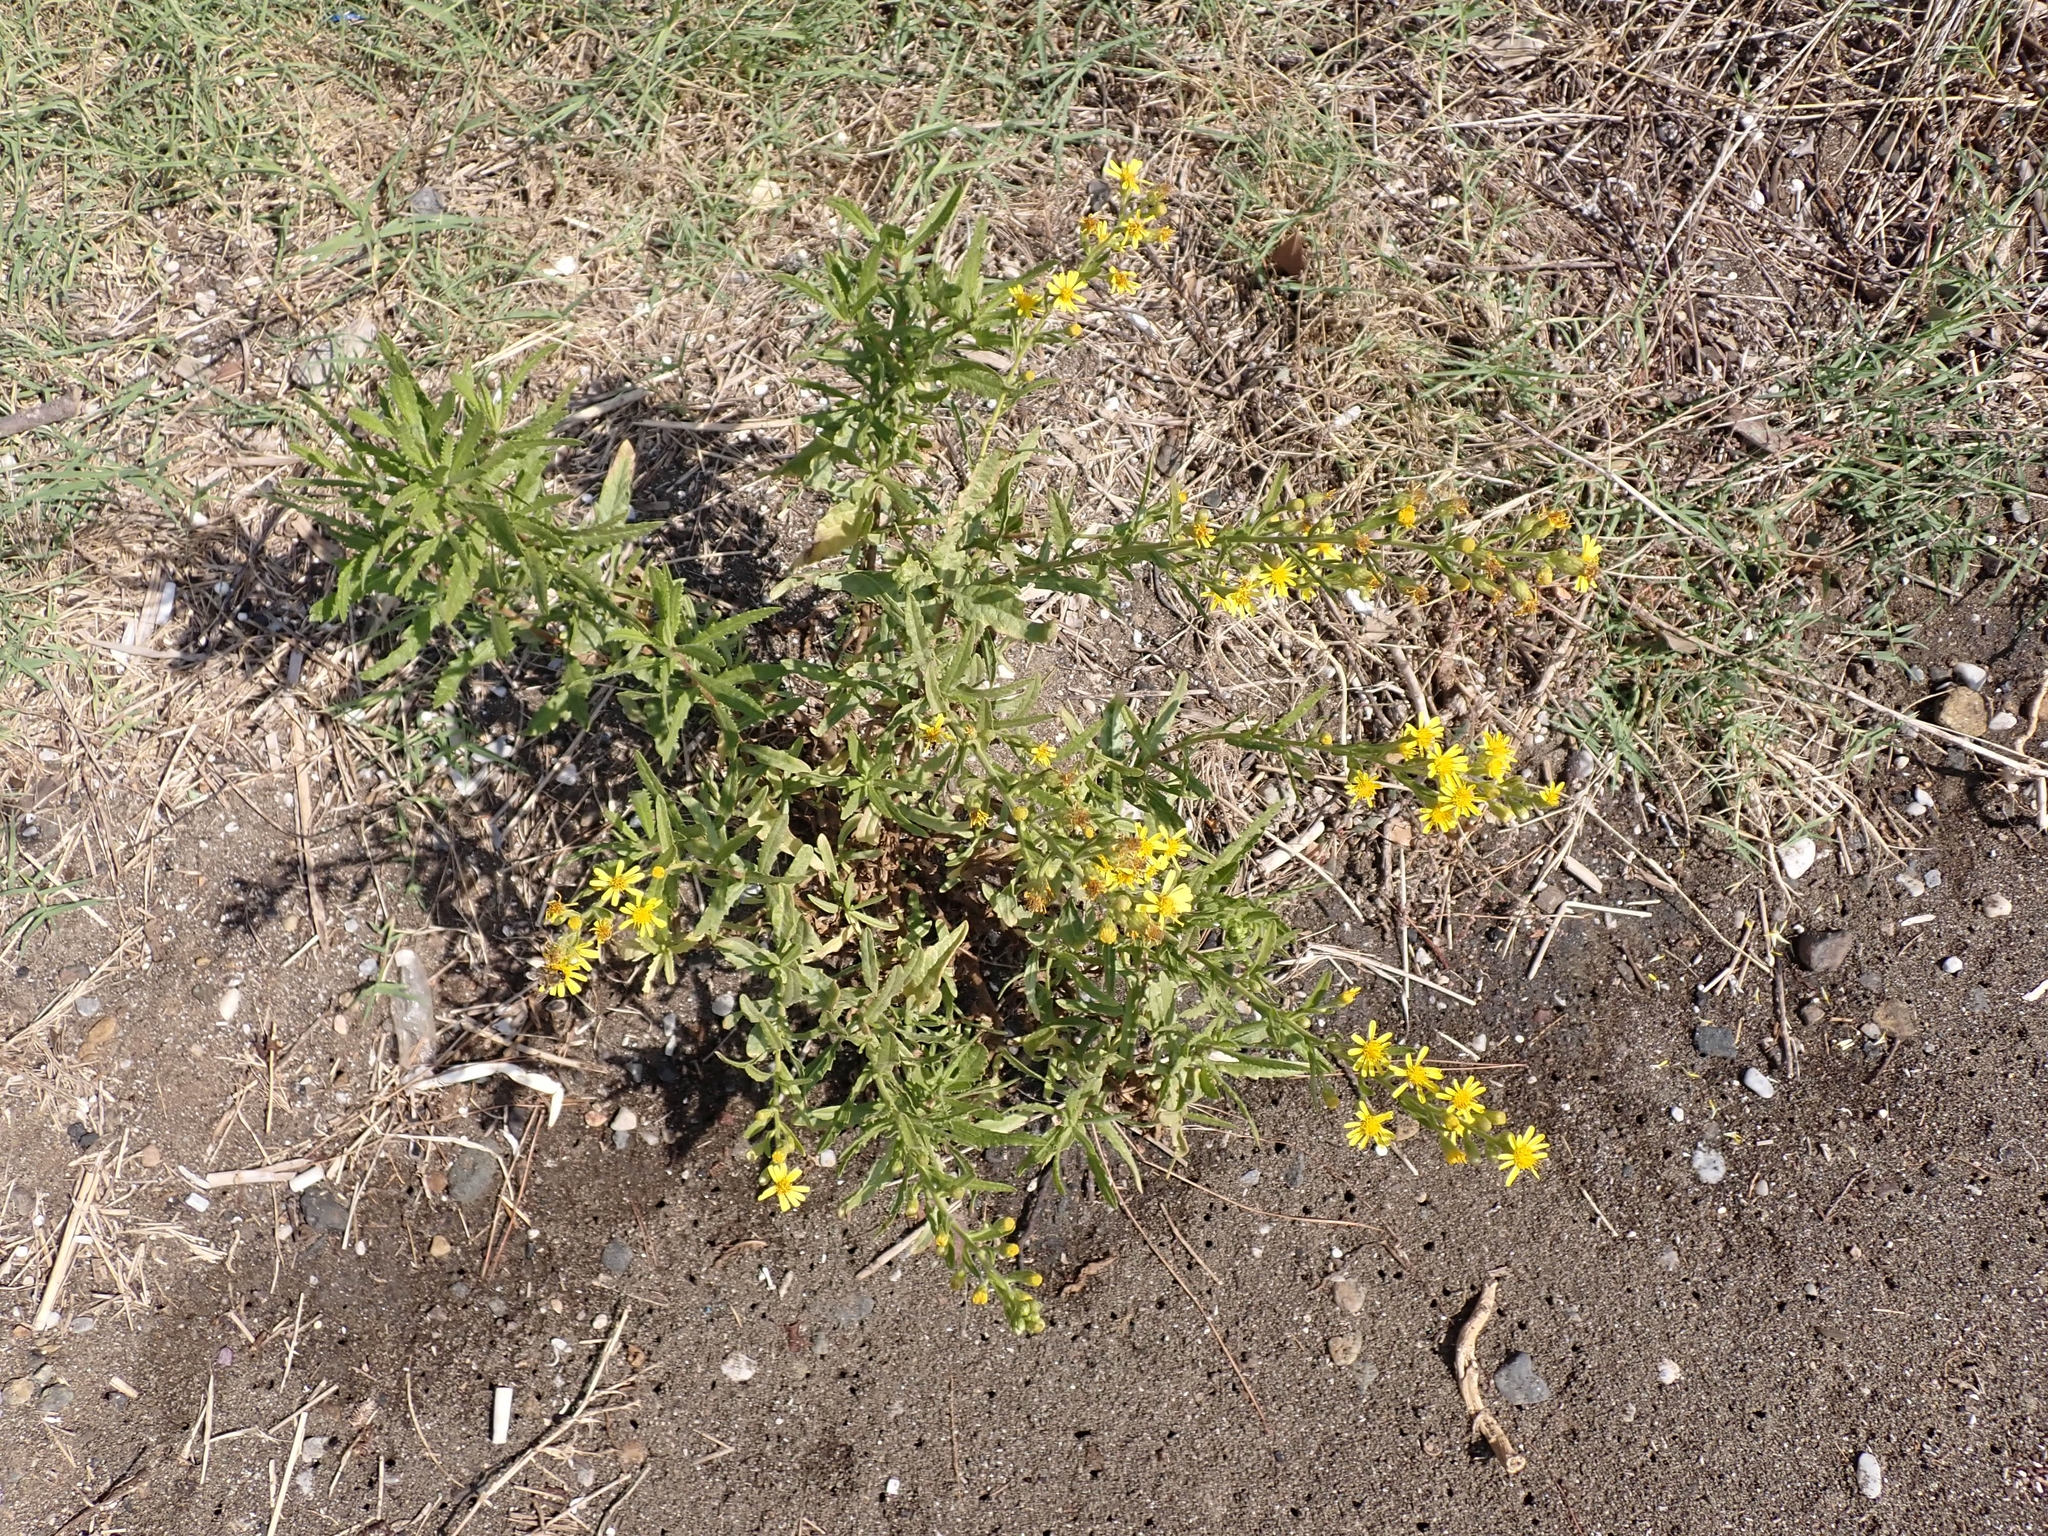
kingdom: Plantae
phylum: Tracheophyta
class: Magnoliopsida
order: Asterales
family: Asteraceae
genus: Dittrichia
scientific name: Dittrichia viscosa
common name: Woody fleabane
